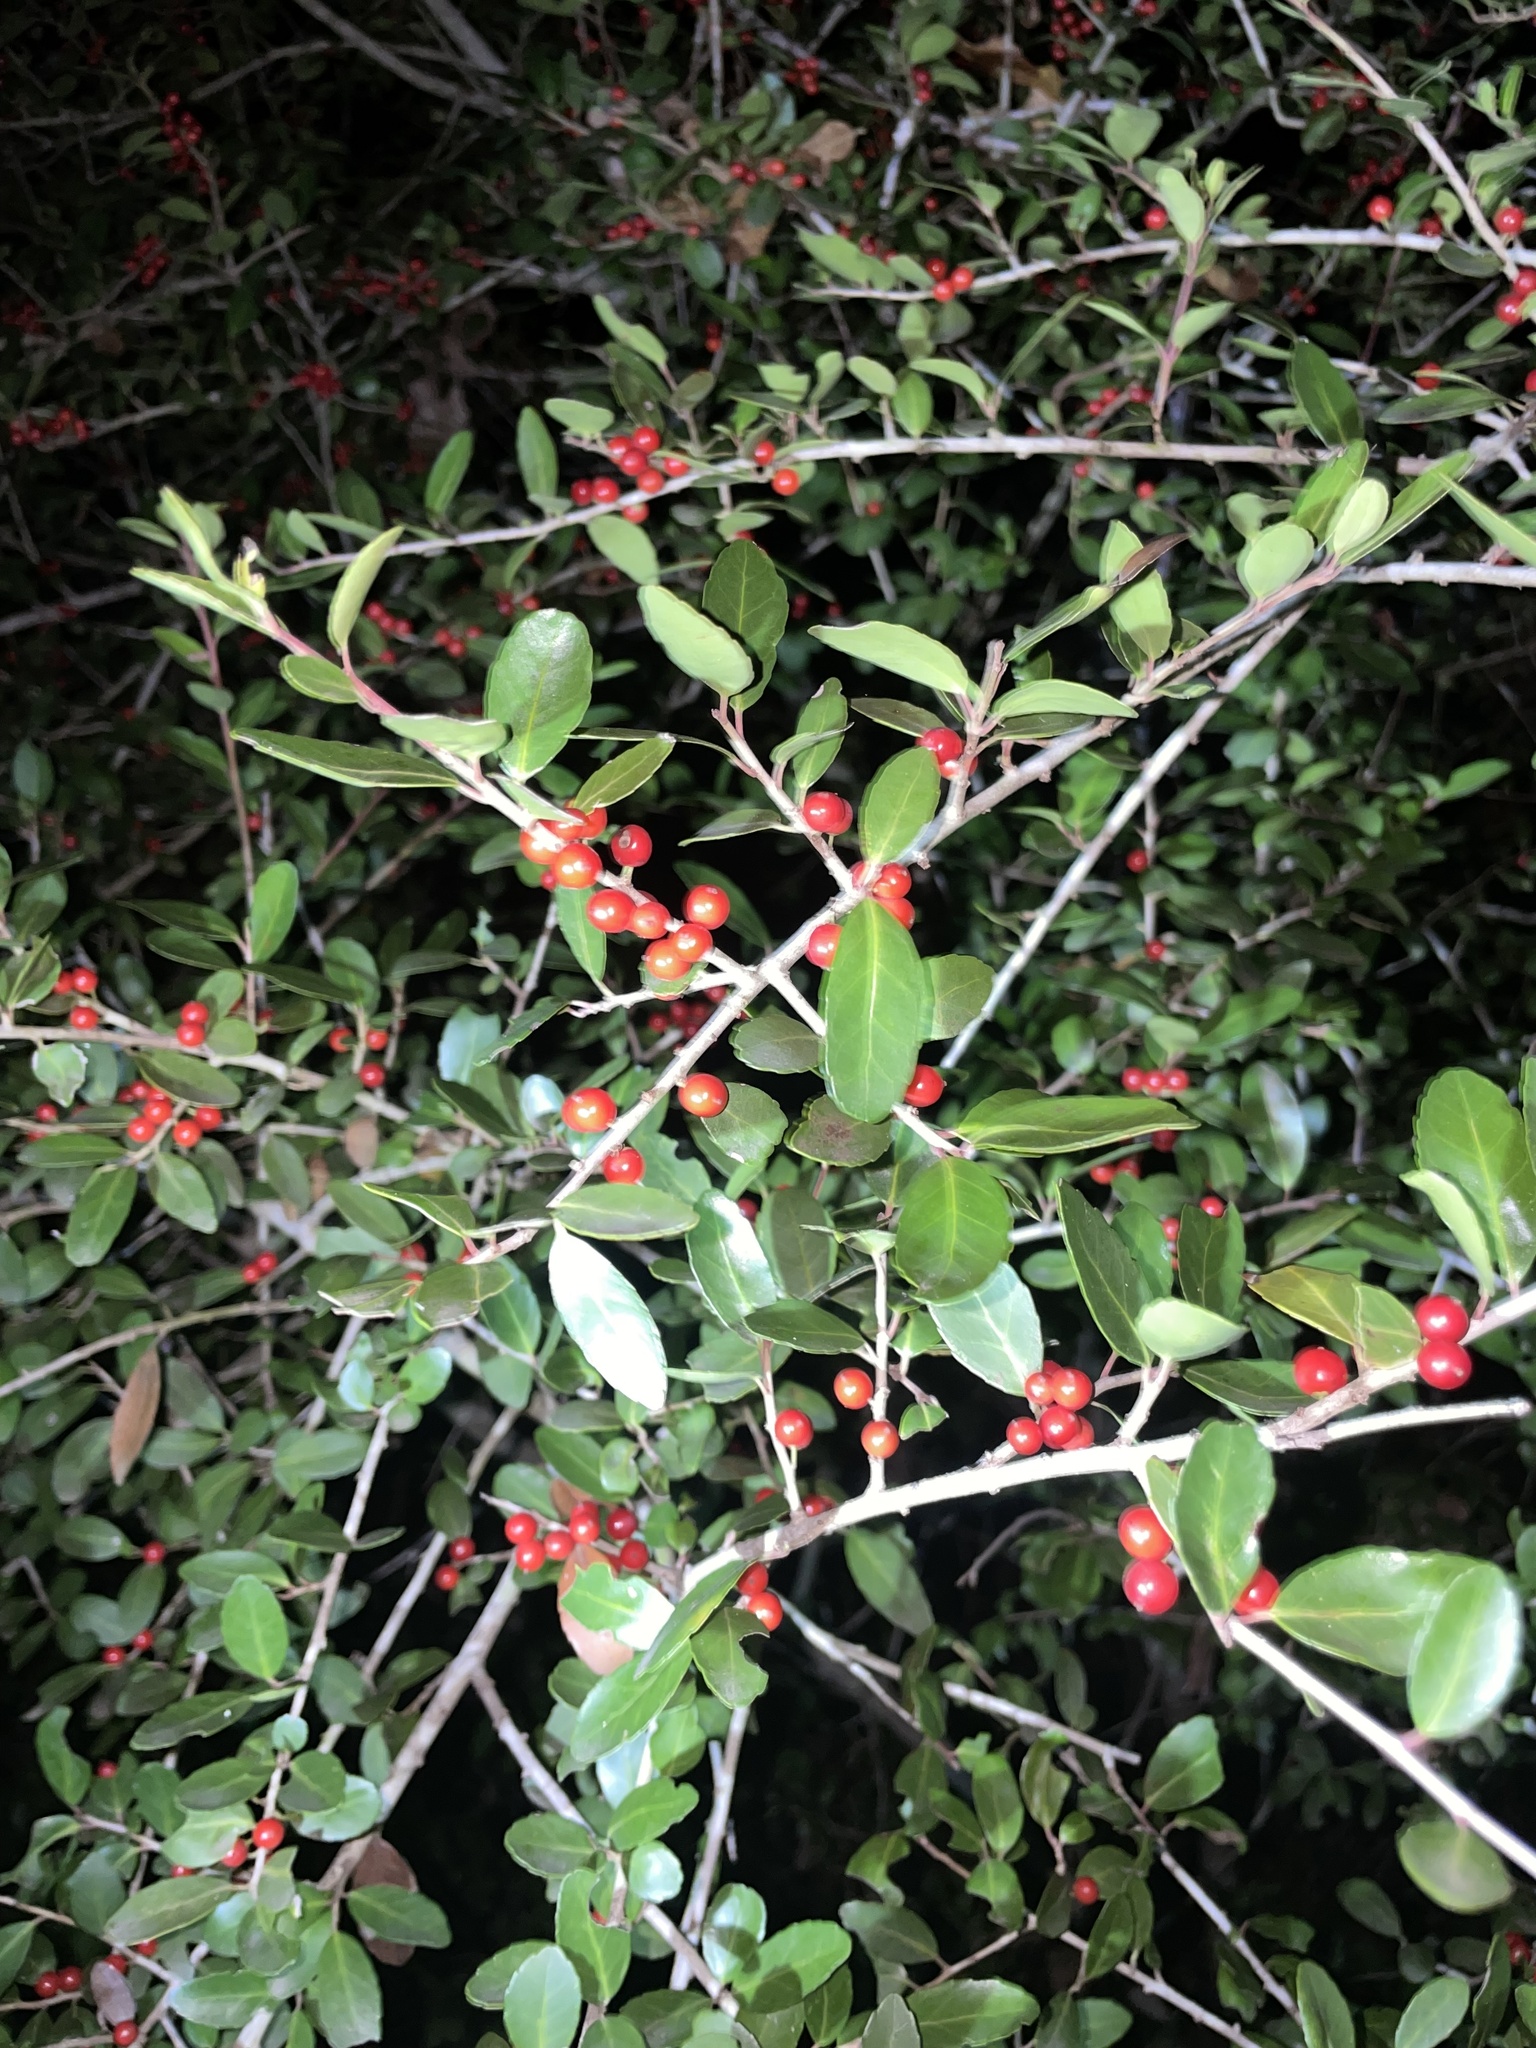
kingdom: Plantae
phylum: Tracheophyta
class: Magnoliopsida
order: Aquifoliales
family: Aquifoliaceae
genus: Ilex
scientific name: Ilex vomitoria
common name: Yaupon holly
